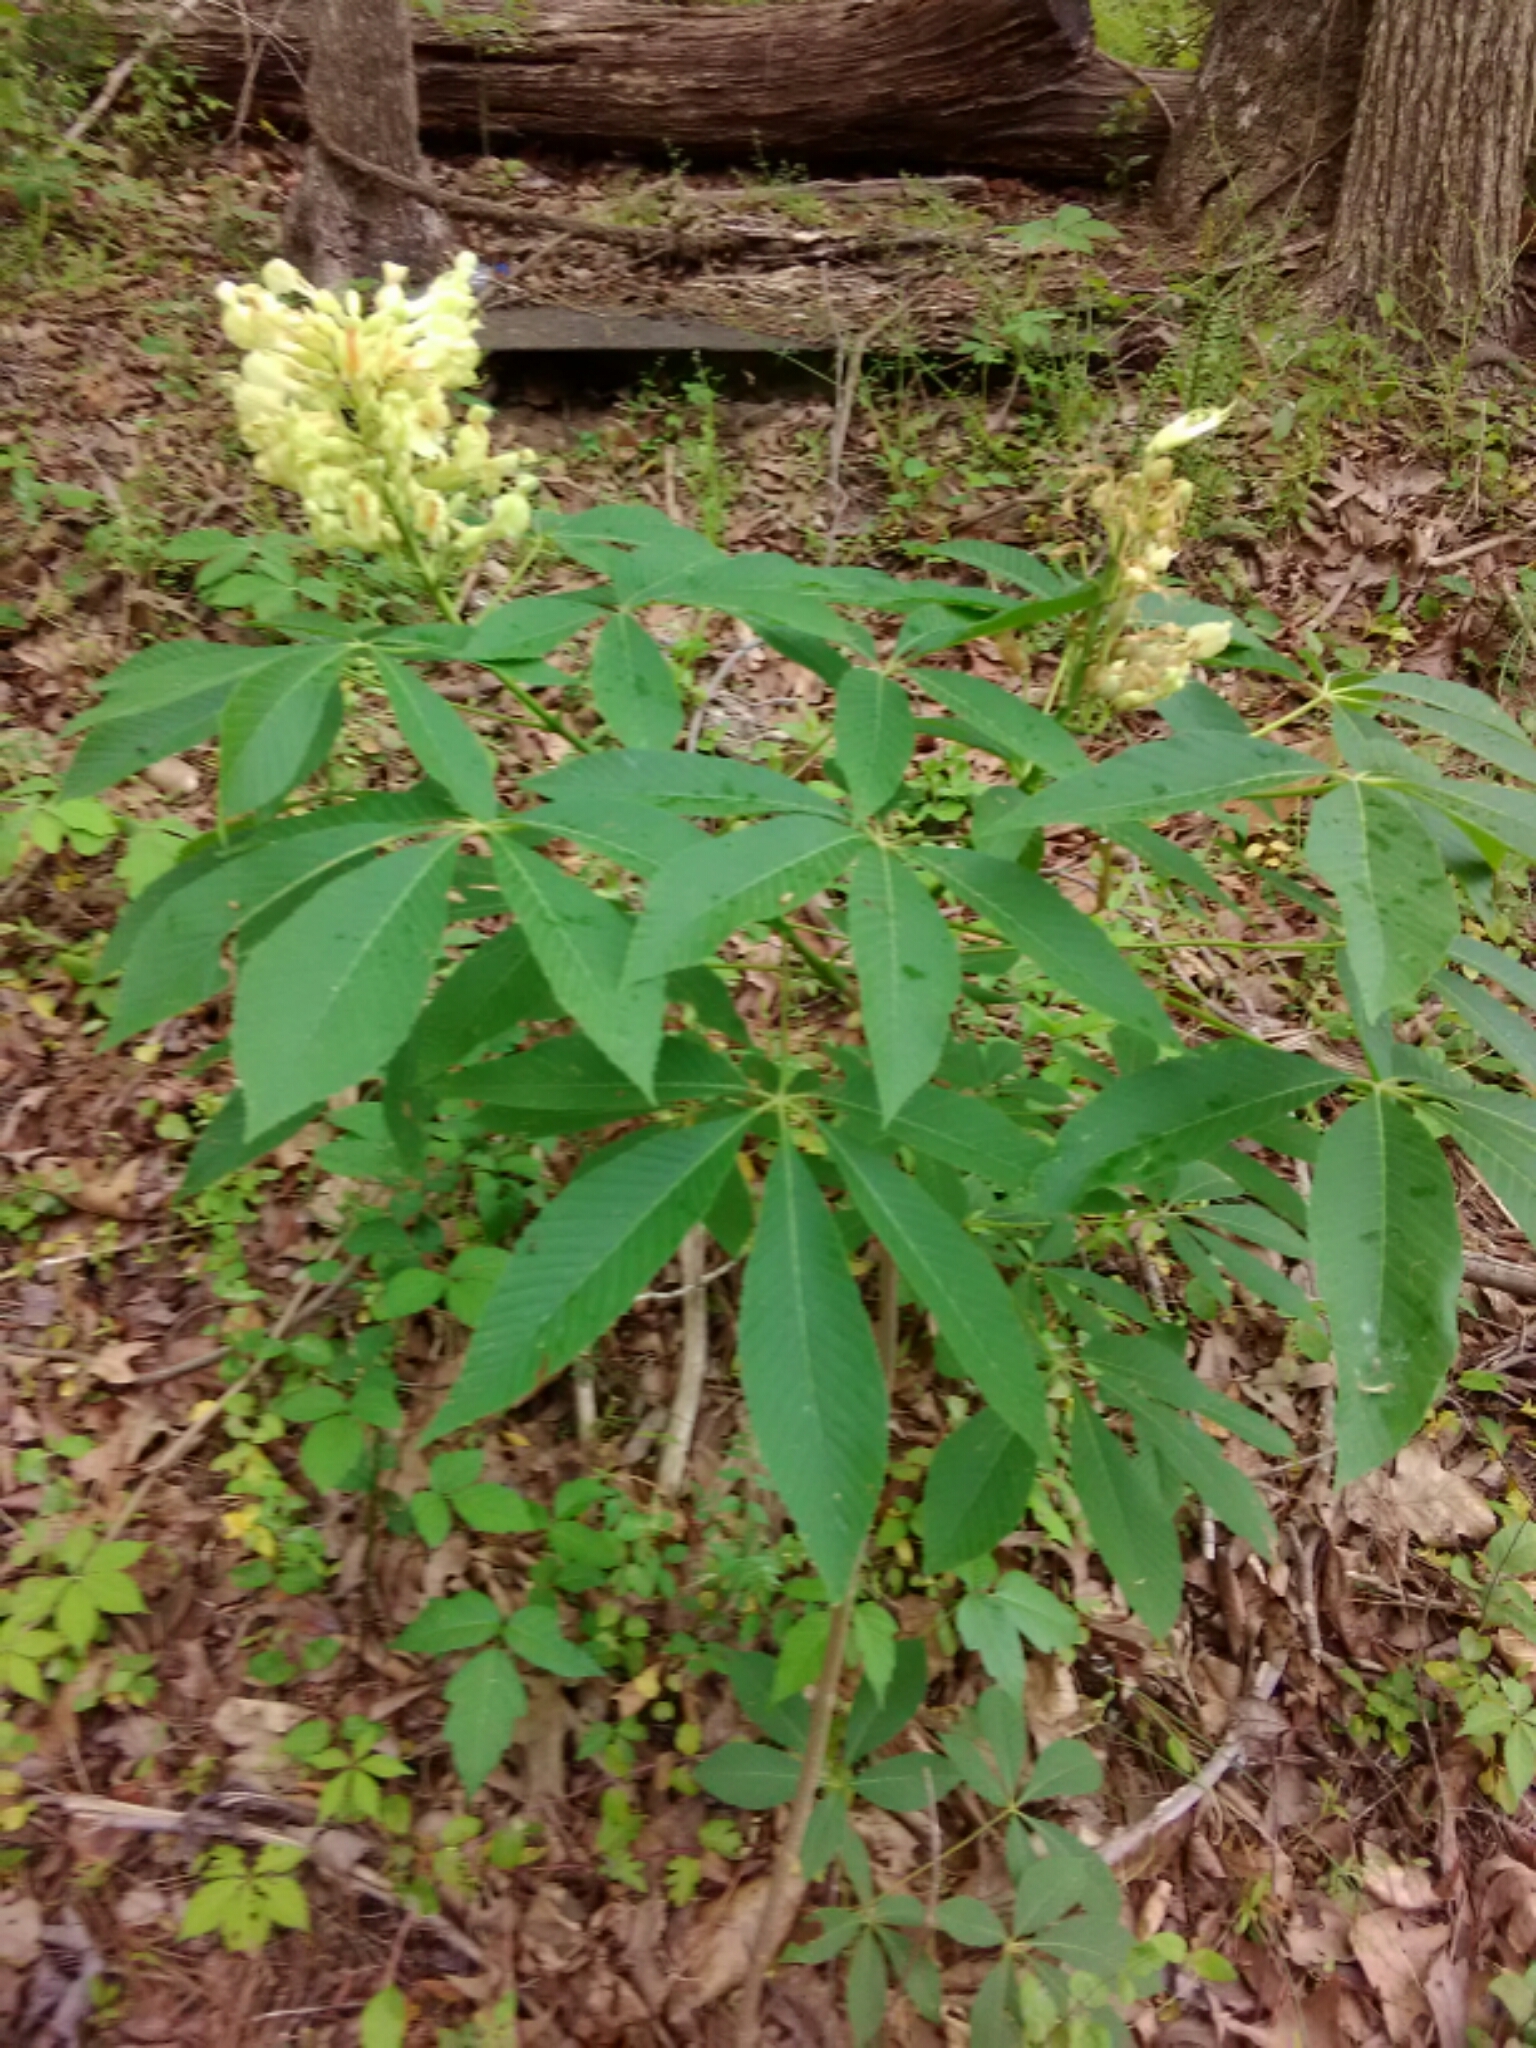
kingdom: Plantae
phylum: Tracheophyta
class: Magnoliopsida
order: Sapindales
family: Sapindaceae
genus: Aesculus
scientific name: Aesculus sylvatica
